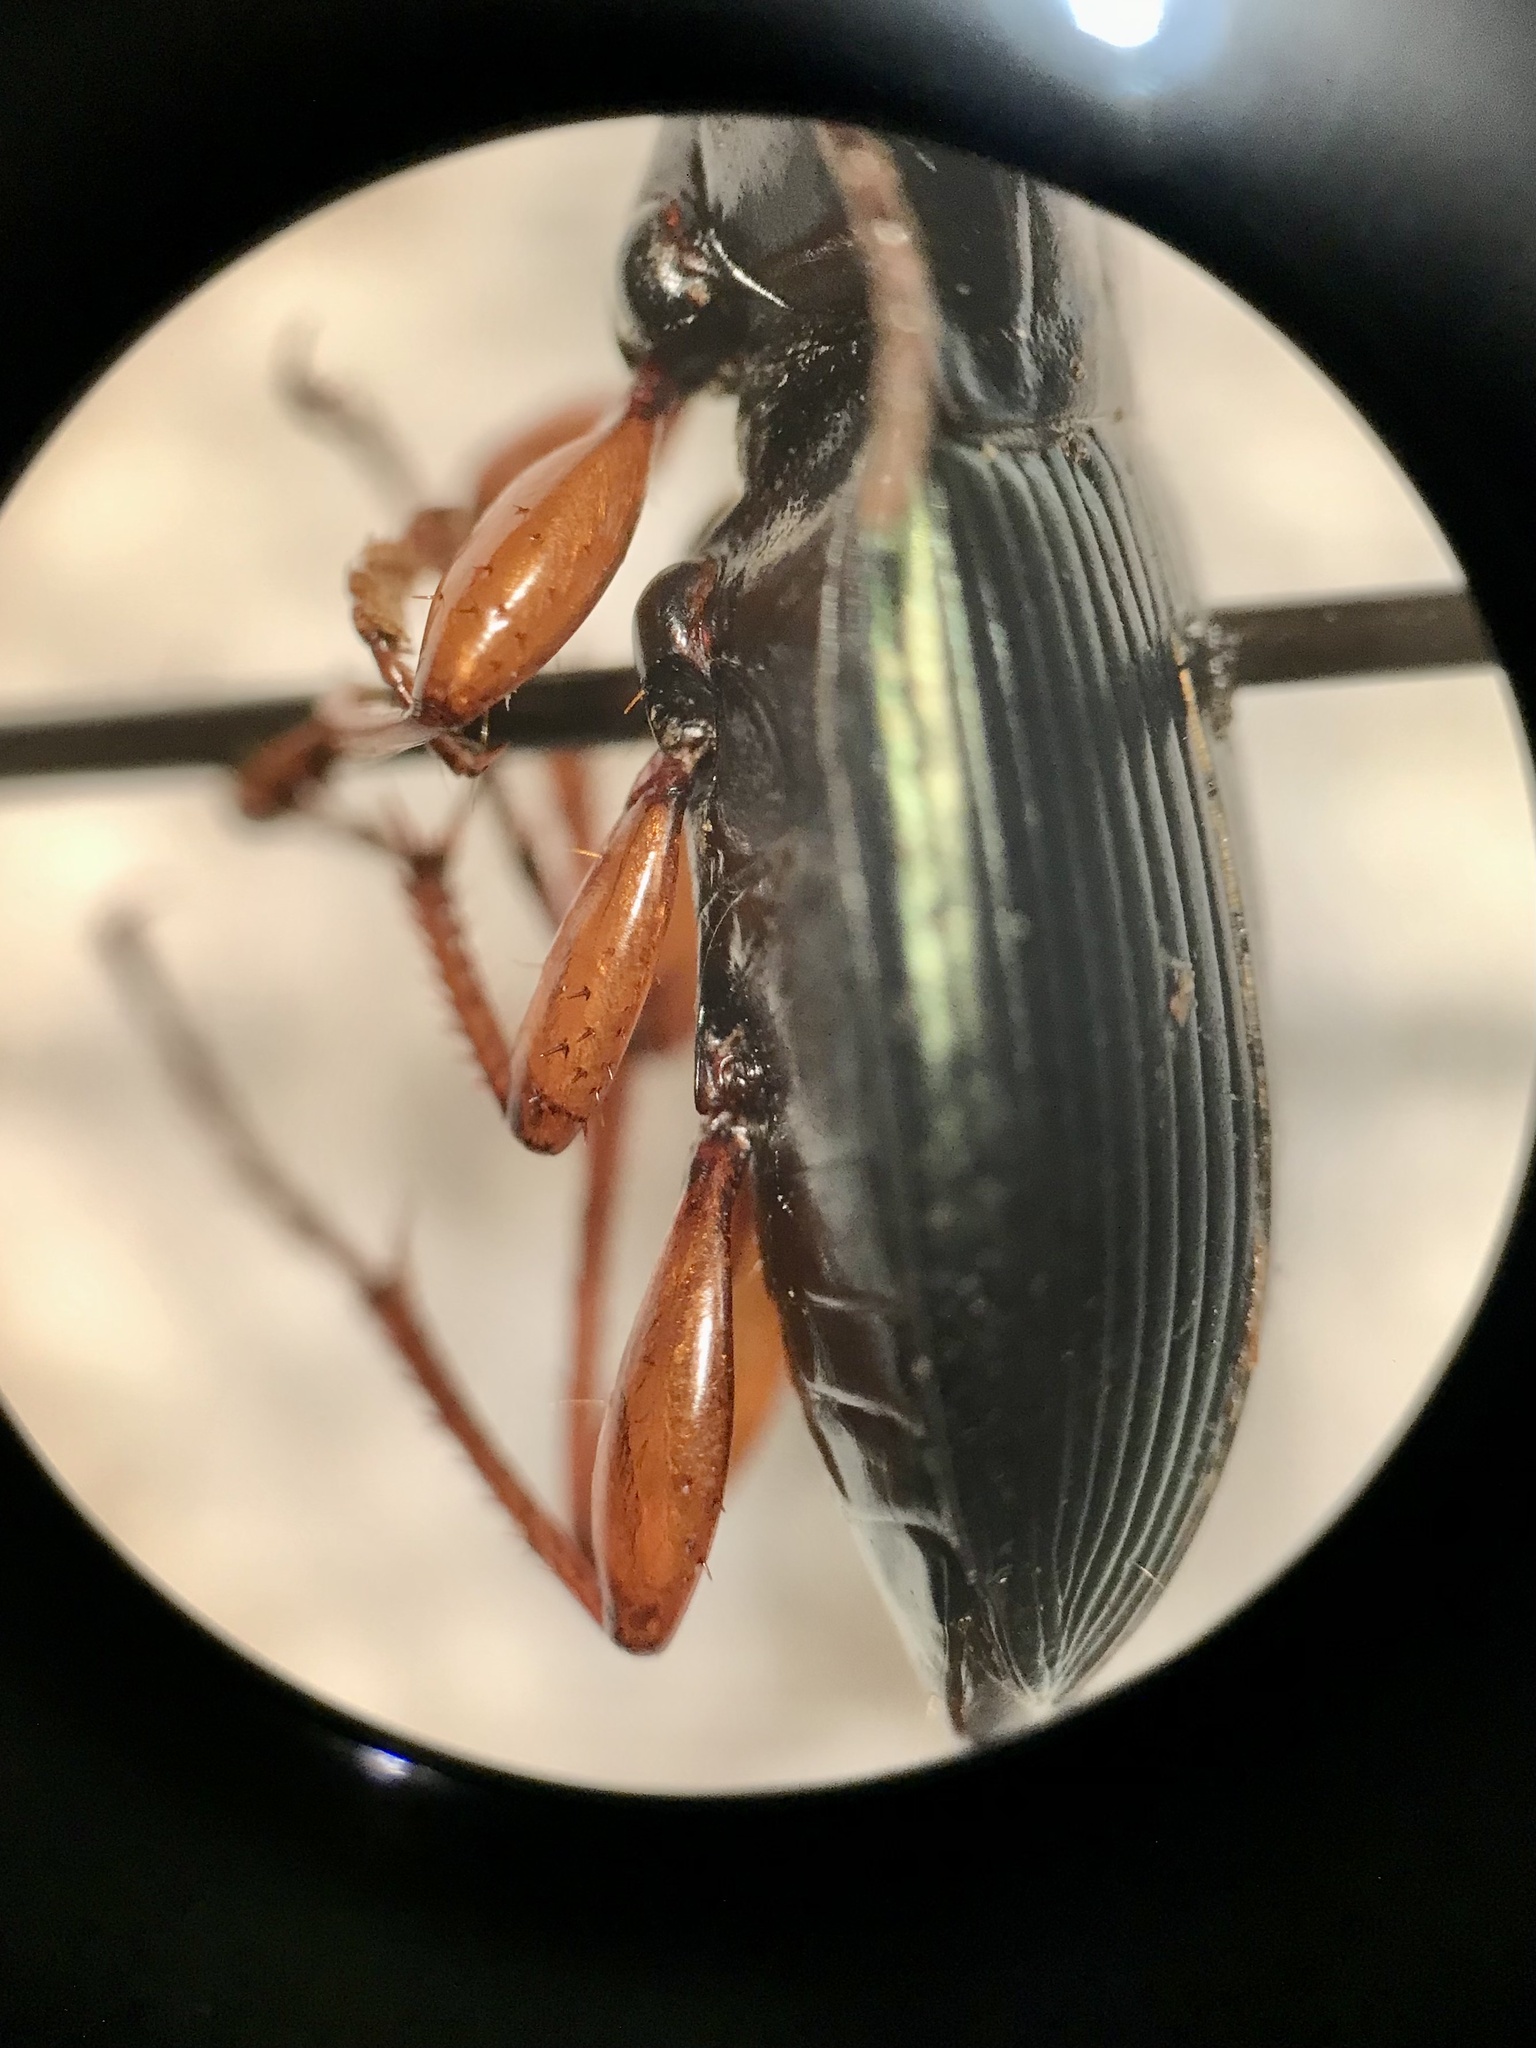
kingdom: Animalia
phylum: Arthropoda
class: Insecta
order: Coleoptera
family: Carabidae
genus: Poecilus
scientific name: Poecilus lucublandus
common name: Woodland ground beetle
